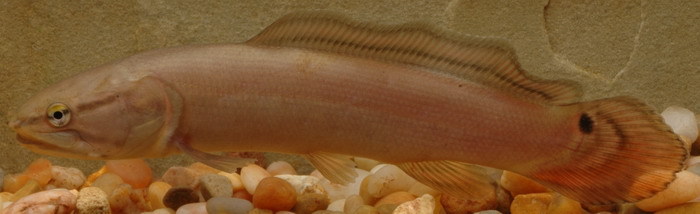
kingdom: Animalia
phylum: Chordata
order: Amiiformes
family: Amiidae
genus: Amia
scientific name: Amia calva
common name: Bowfin
